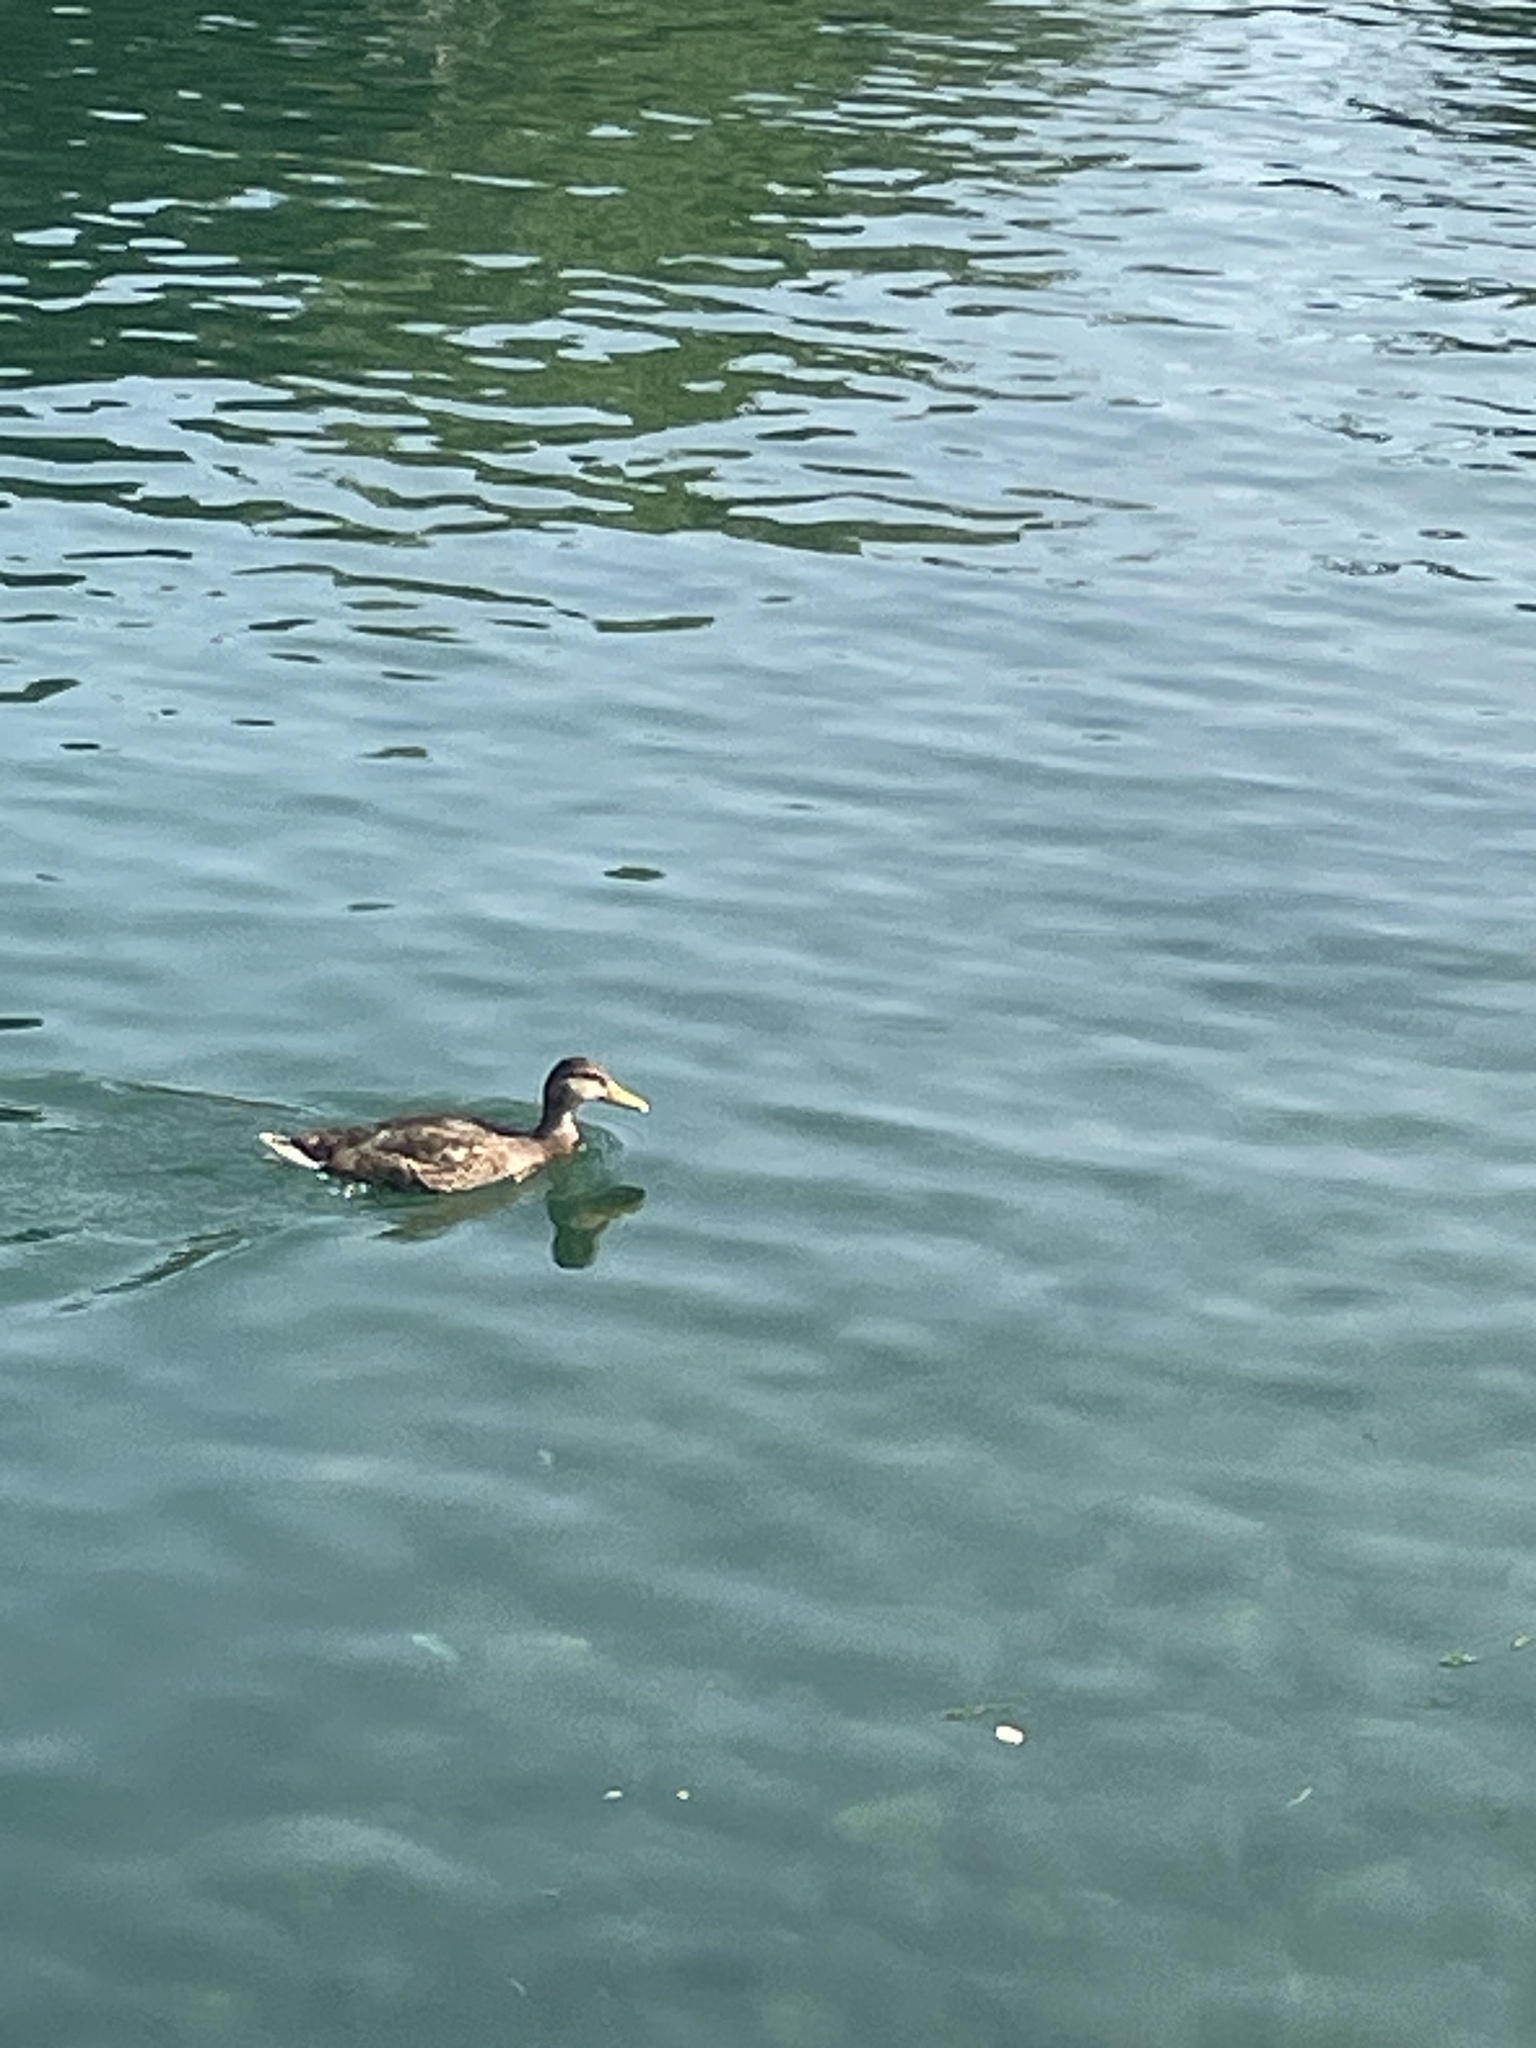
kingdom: Animalia
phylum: Chordata
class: Aves
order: Anseriformes
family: Anatidae
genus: Anas
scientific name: Anas platyrhynchos
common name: Mallard
